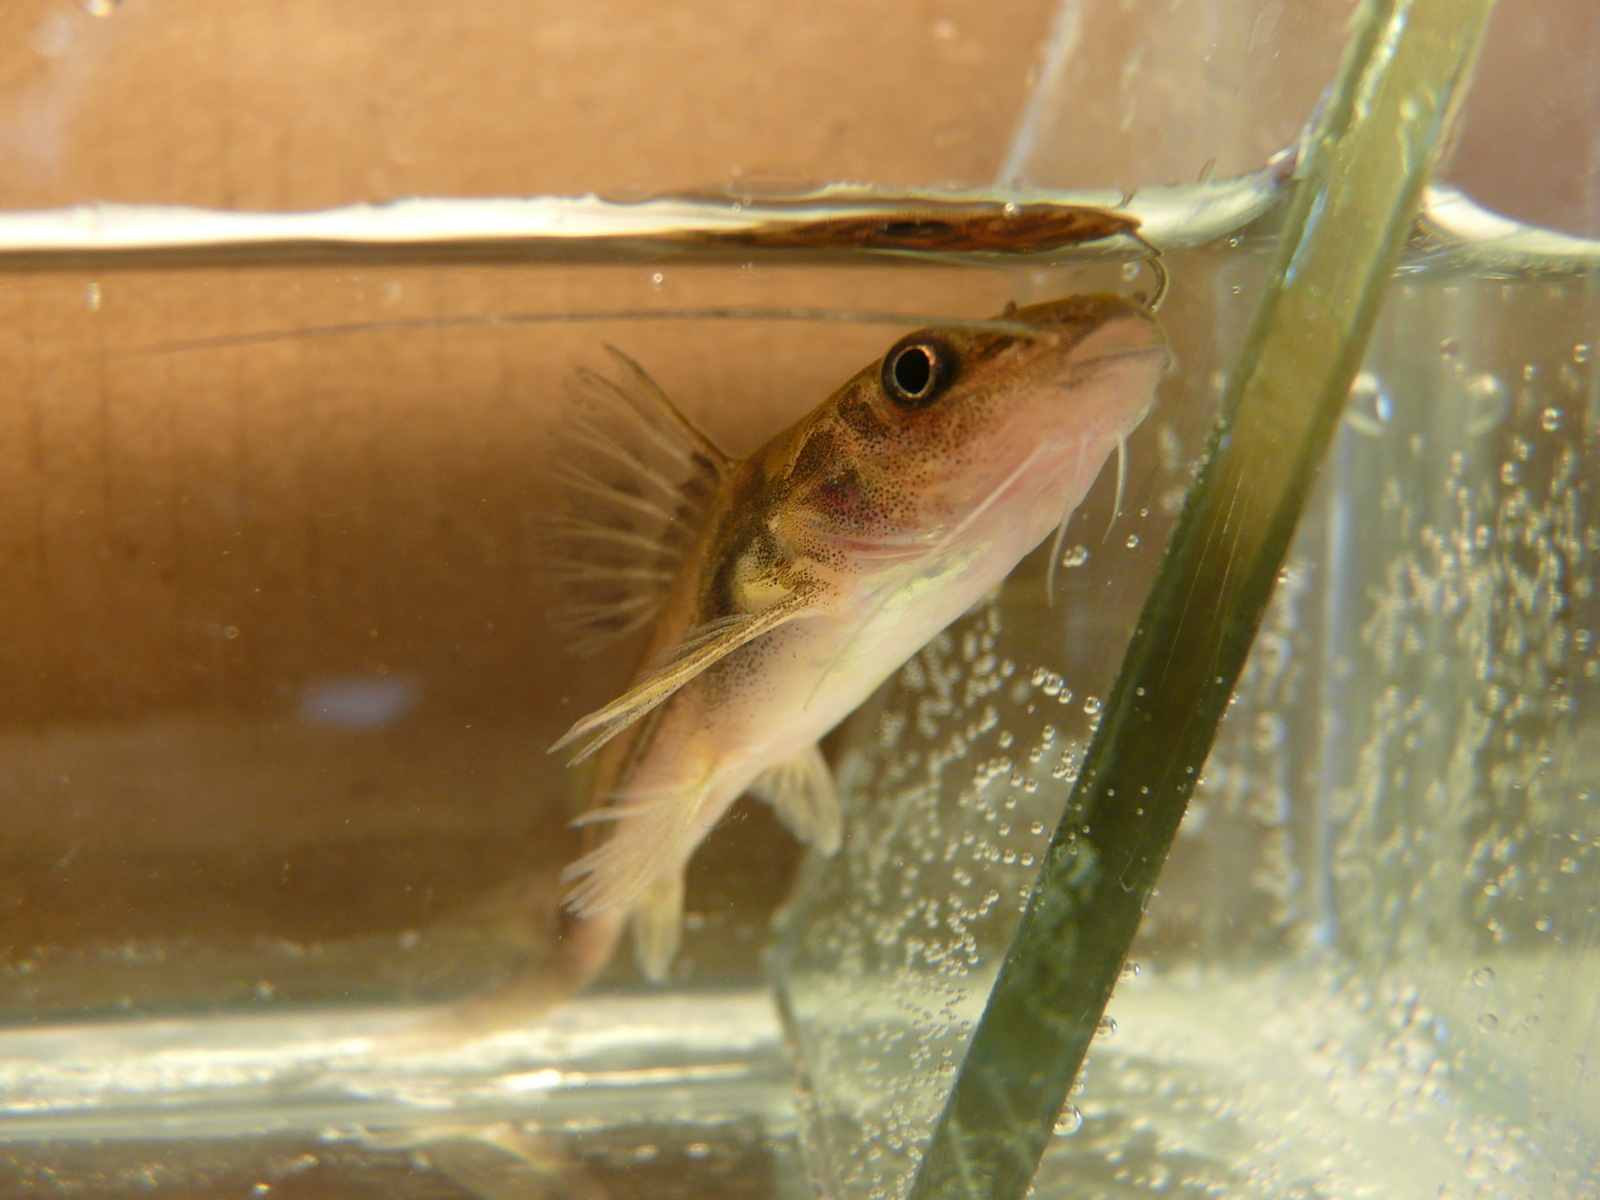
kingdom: Animalia
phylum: Chordata
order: Siluriformes
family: Heptapteridae
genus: Pimelodella
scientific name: Pimelodella laticeps
